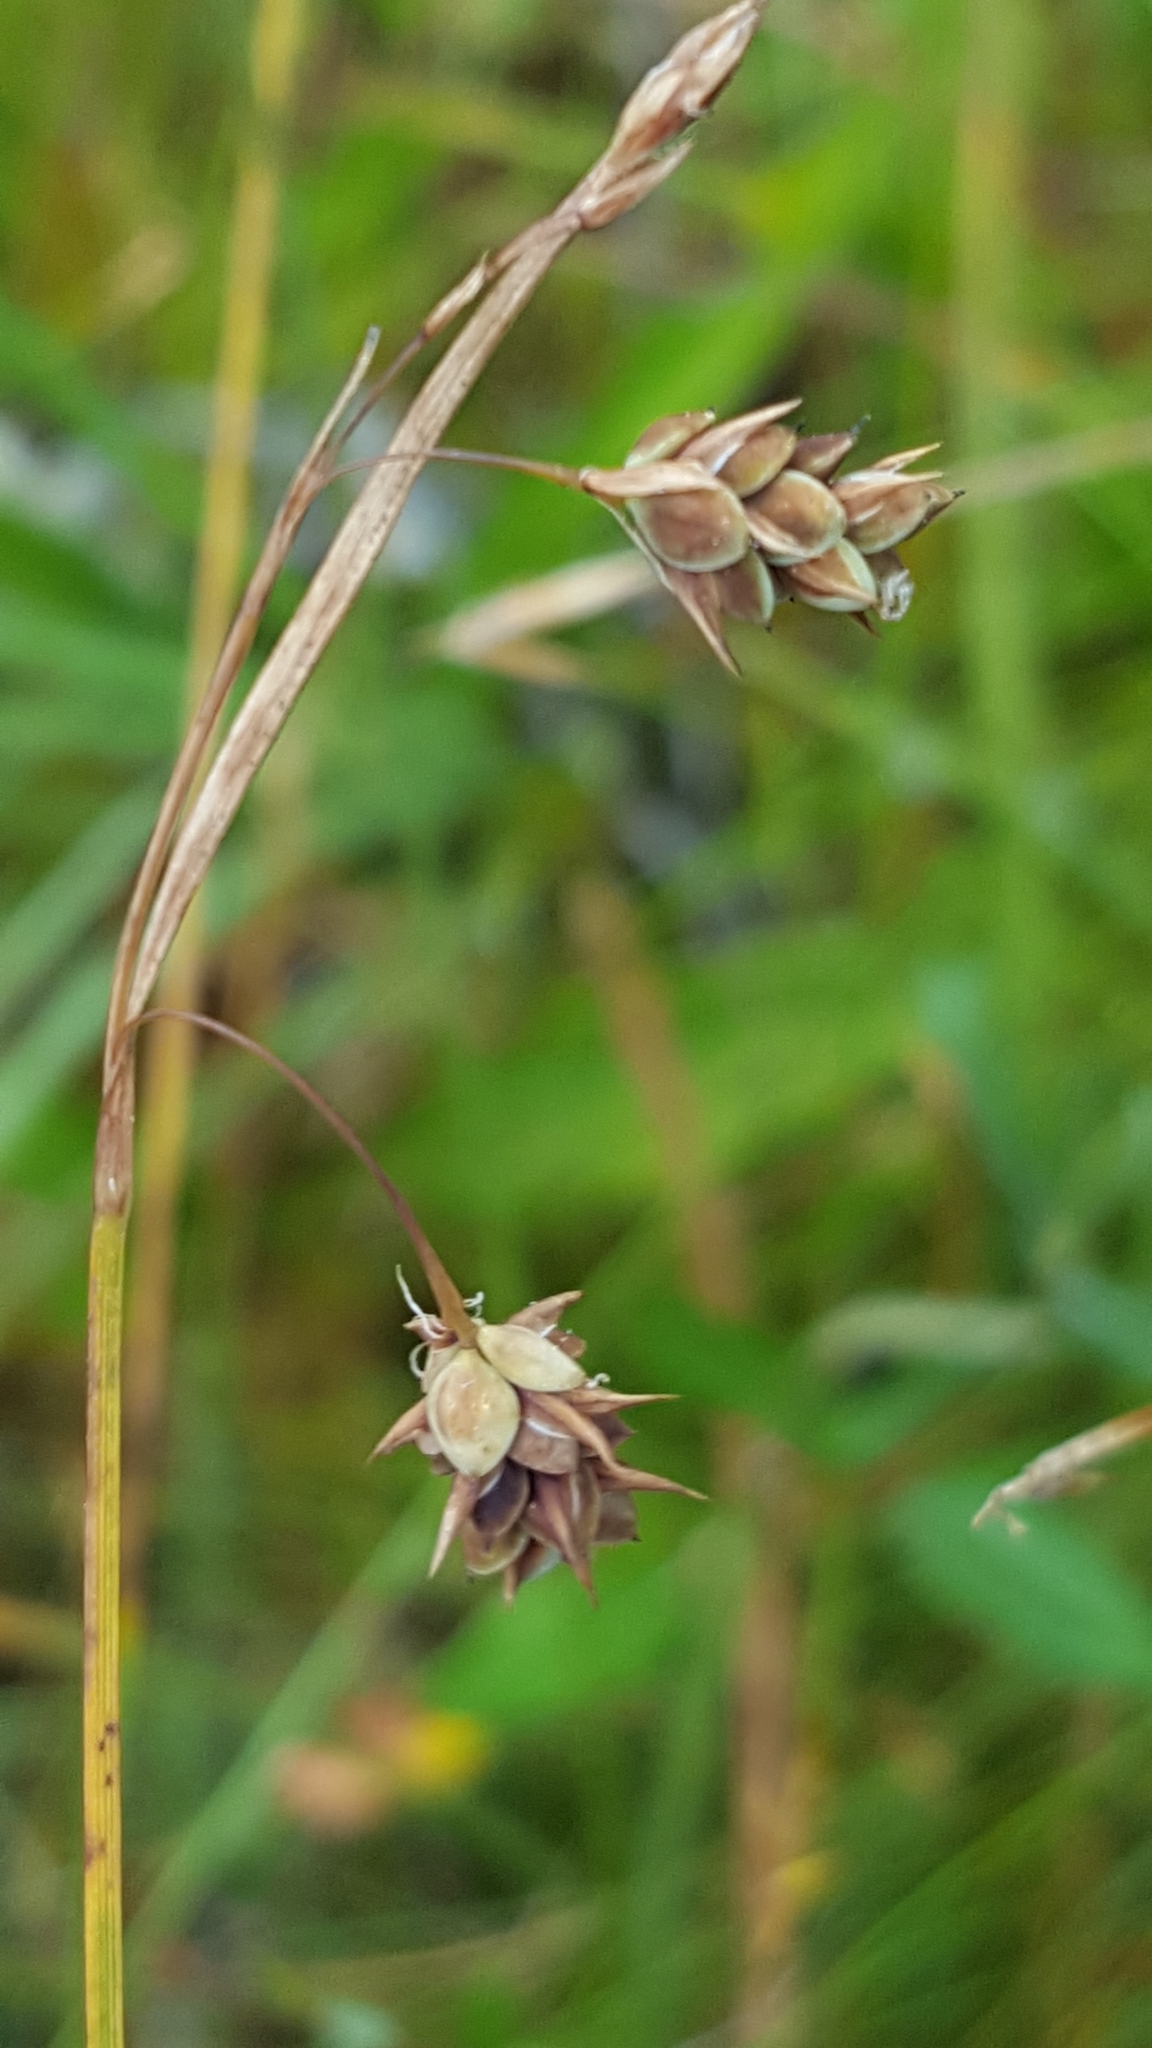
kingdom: Plantae
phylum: Tracheophyta
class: Liliopsida
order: Poales
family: Cyperaceae
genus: Carex
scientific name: Carex magellanica
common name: Bog sedge
